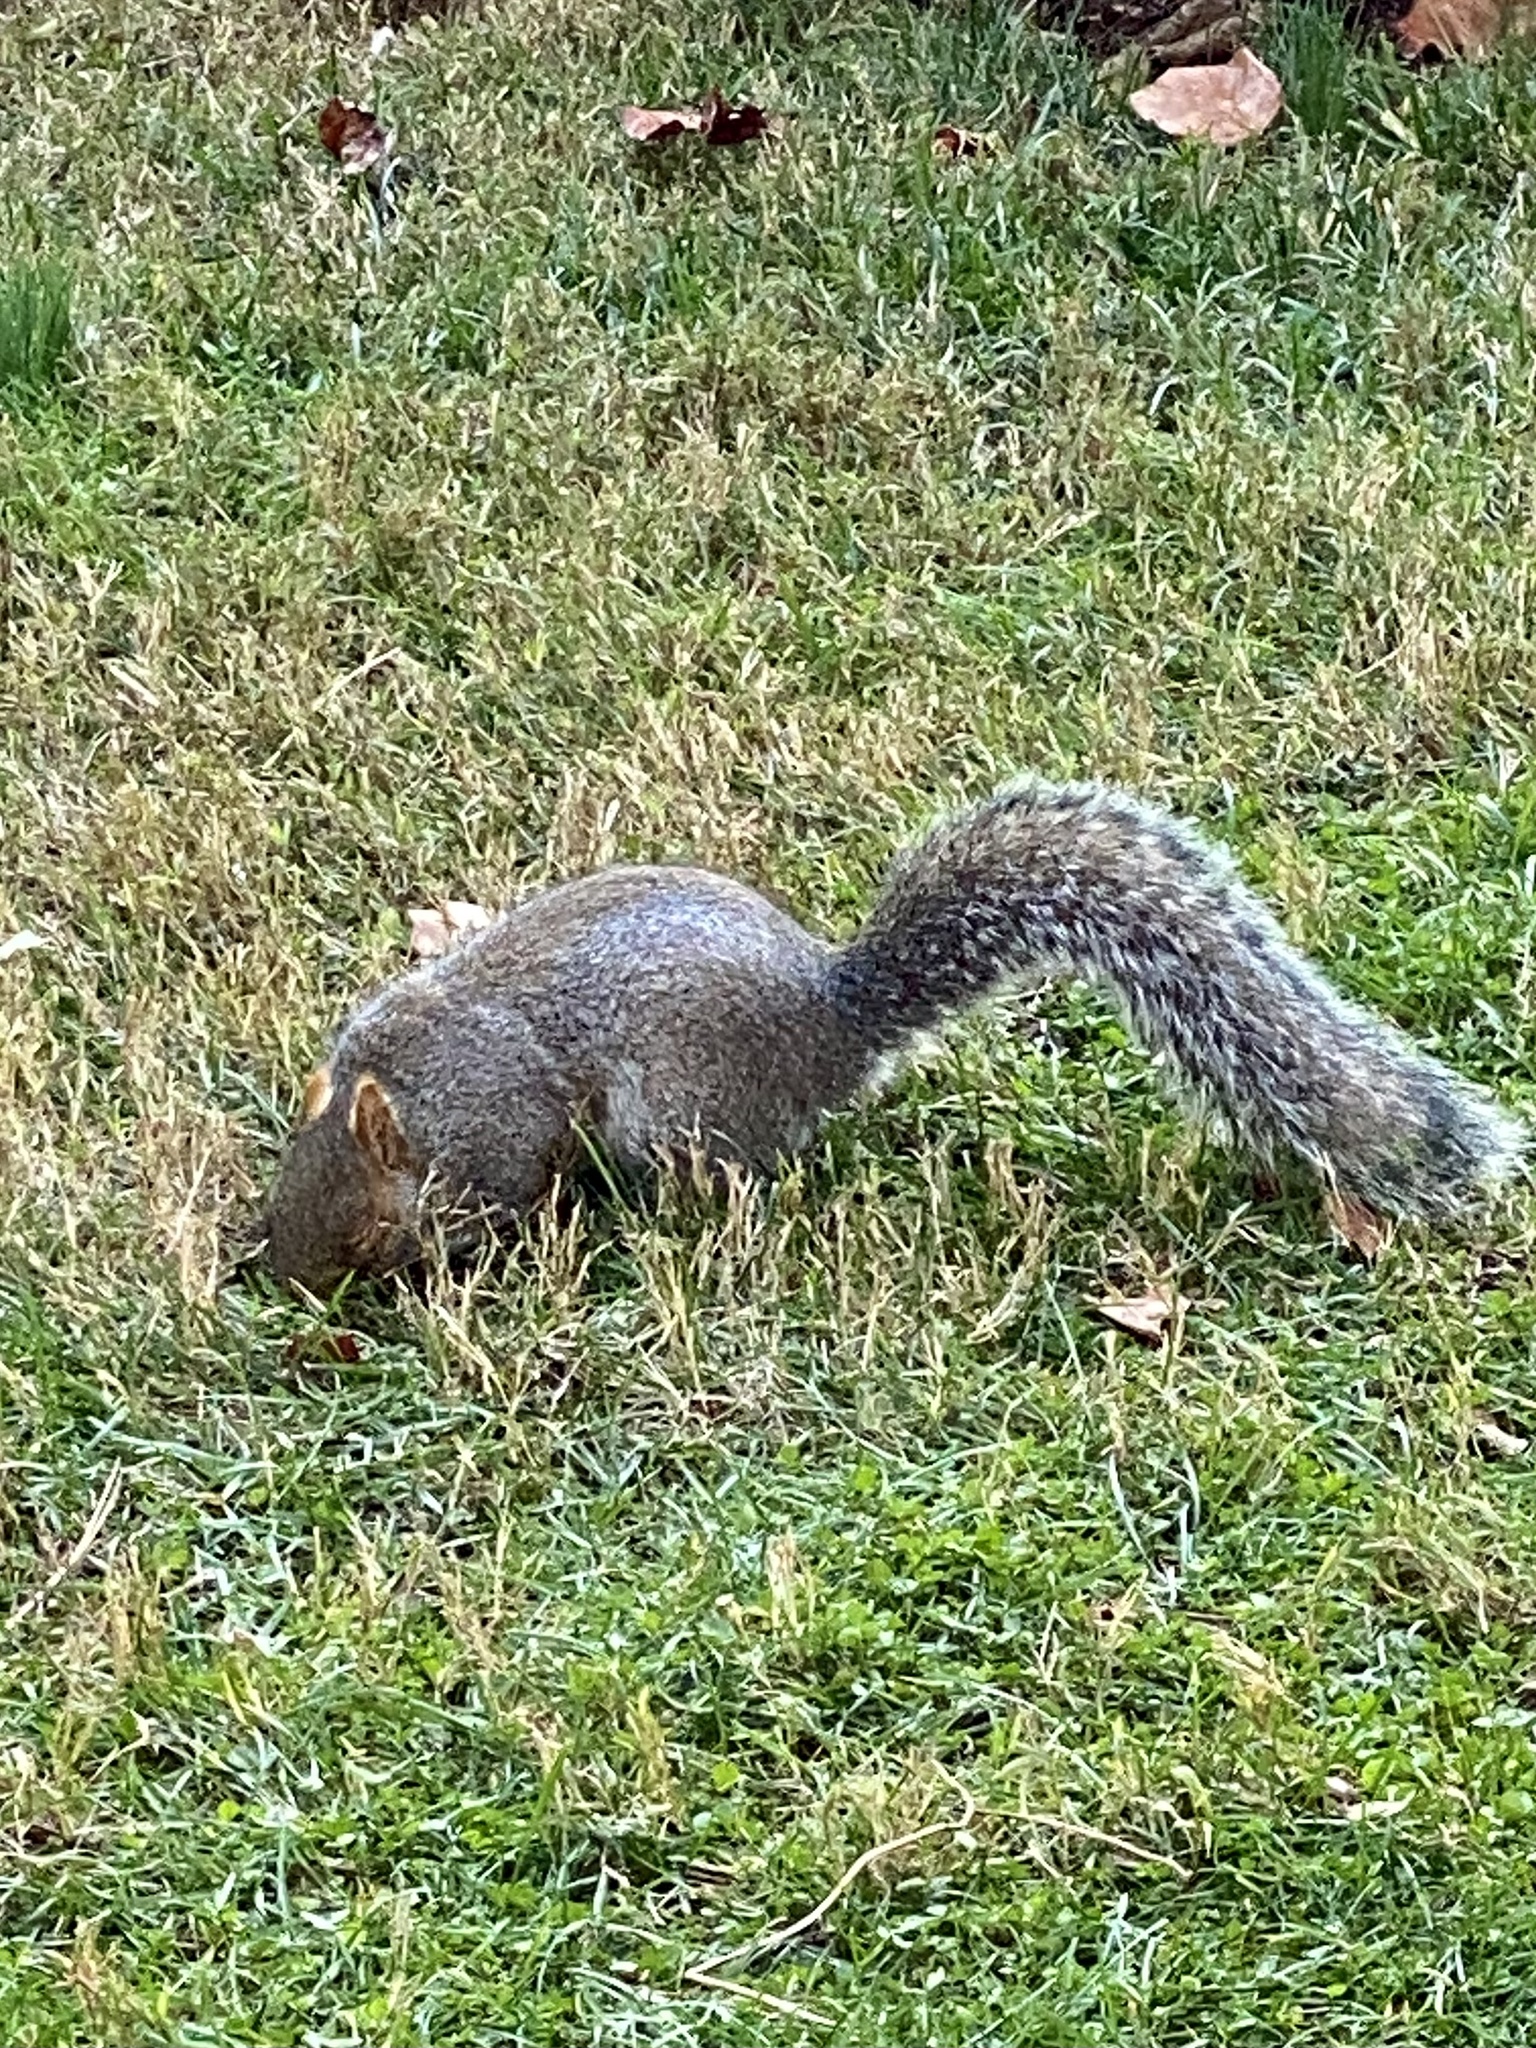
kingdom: Animalia
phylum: Chordata
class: Mammalia
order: Rodentia
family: Sciuridae
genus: Sciurus
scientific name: Sciurus carolinensis
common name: Eastern gray squirrel
